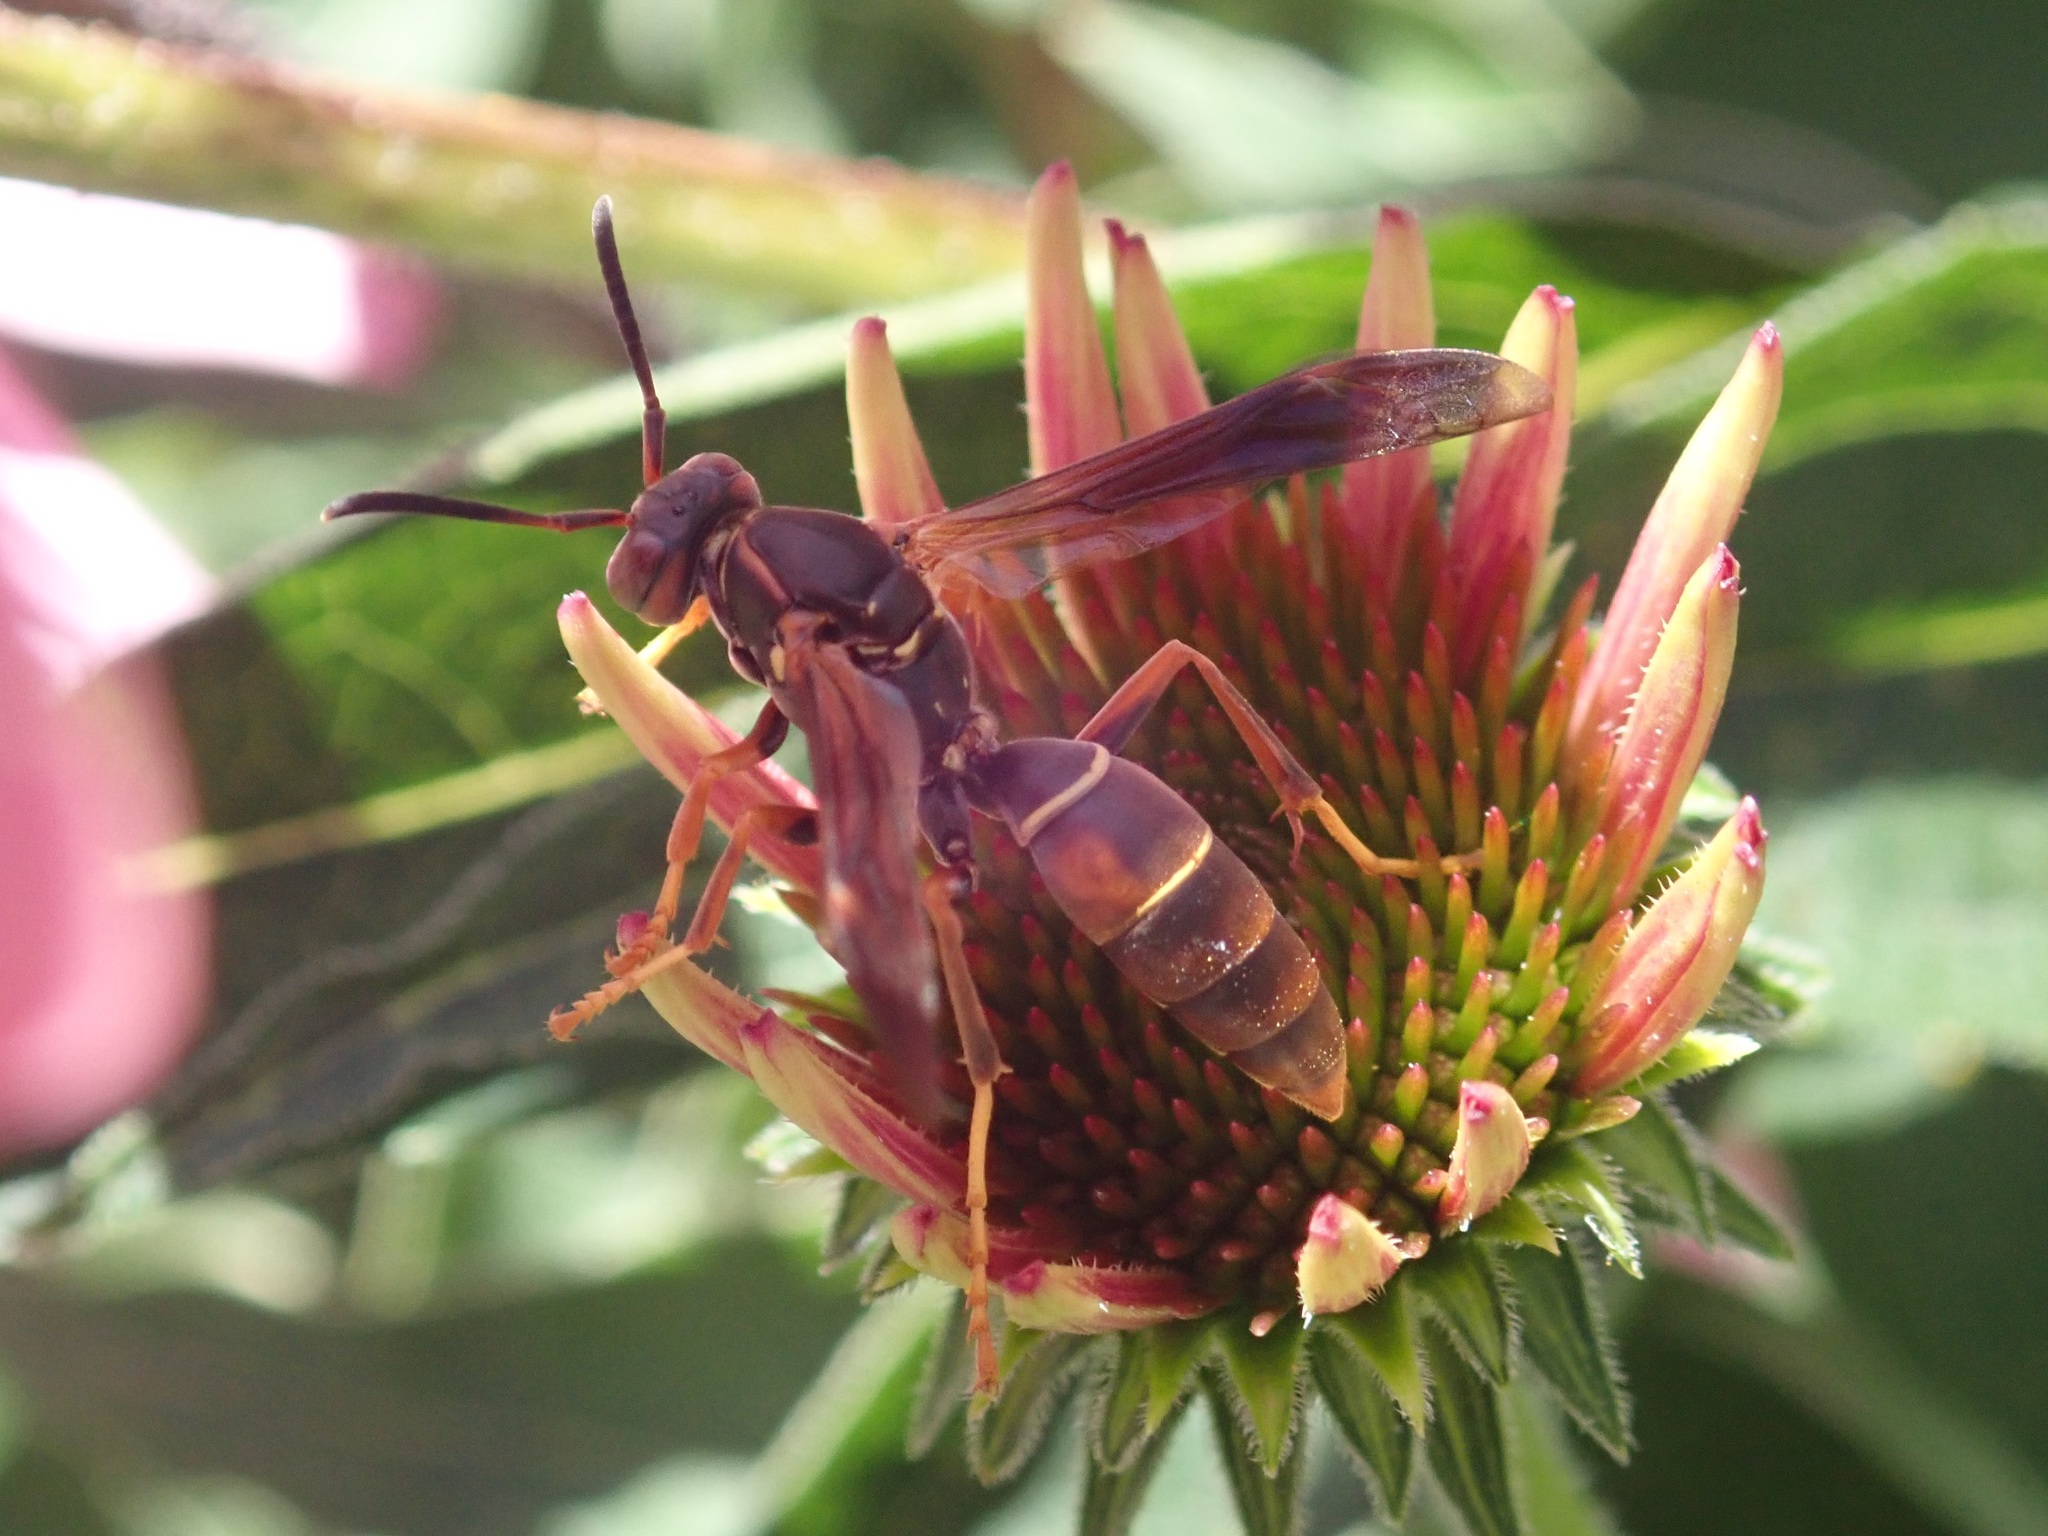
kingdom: Animalia
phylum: Arthropoda
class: Insecta
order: Hymenoptera
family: Eumenidae
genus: Polistes
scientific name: Polistes fuscatus
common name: Dark paper wasp
